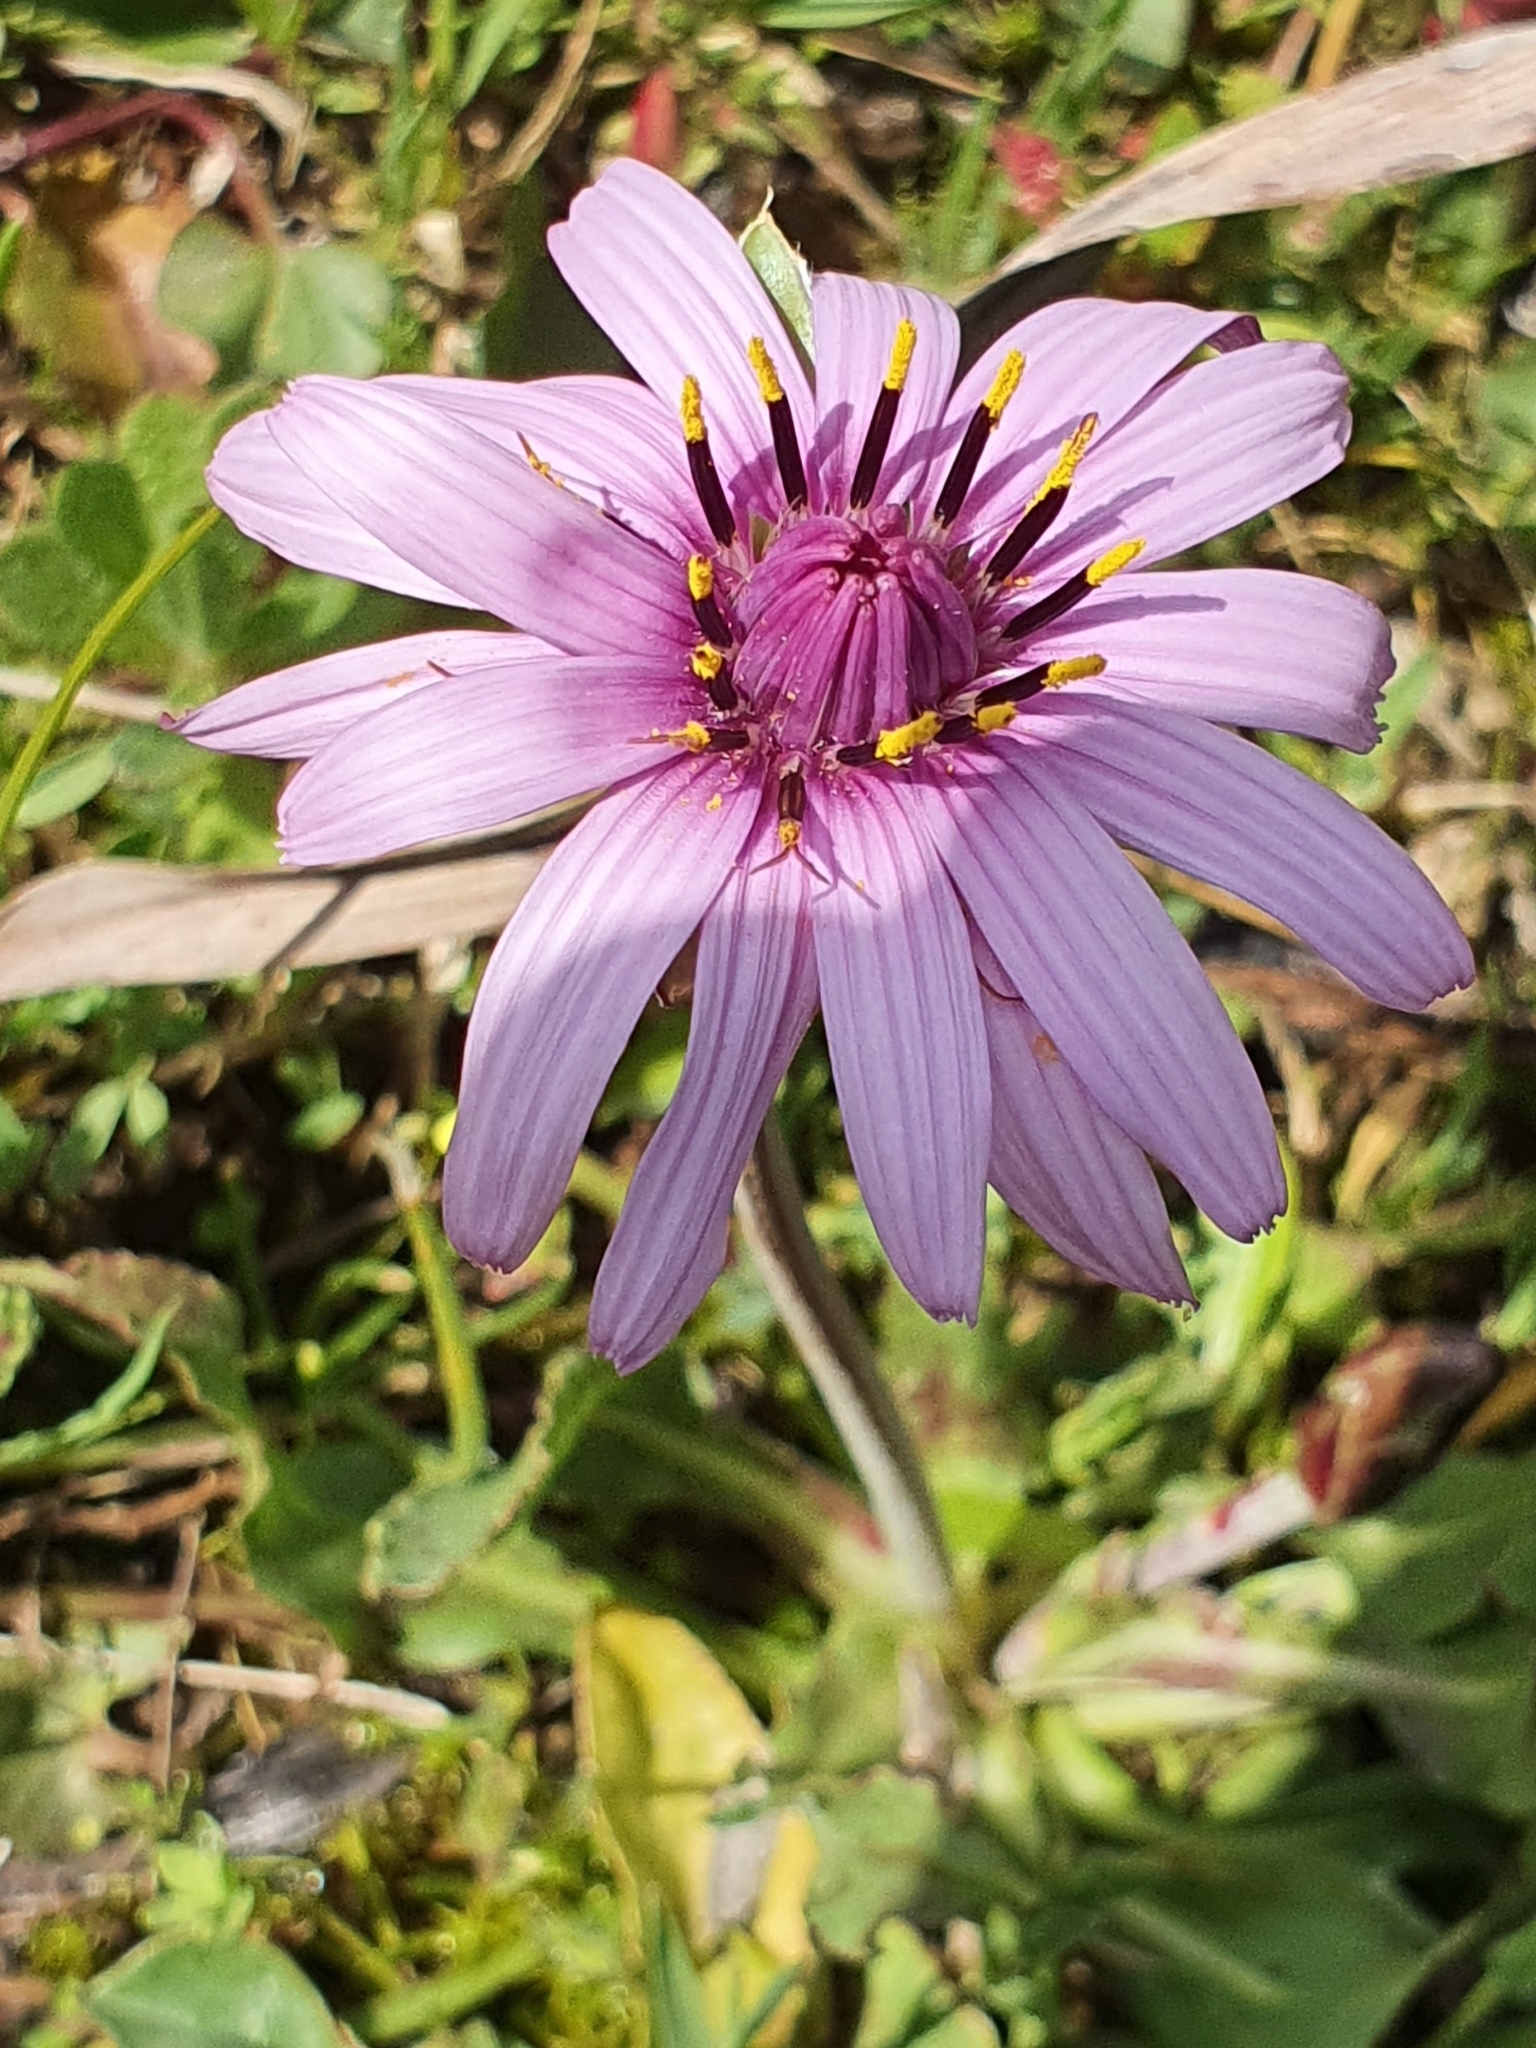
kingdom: Plantae
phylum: Tracheophyta
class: Magnoliopsida
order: Asterales
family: Asteraceae
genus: Pseudopodospermum
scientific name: Pseudopodospermum undulatum
